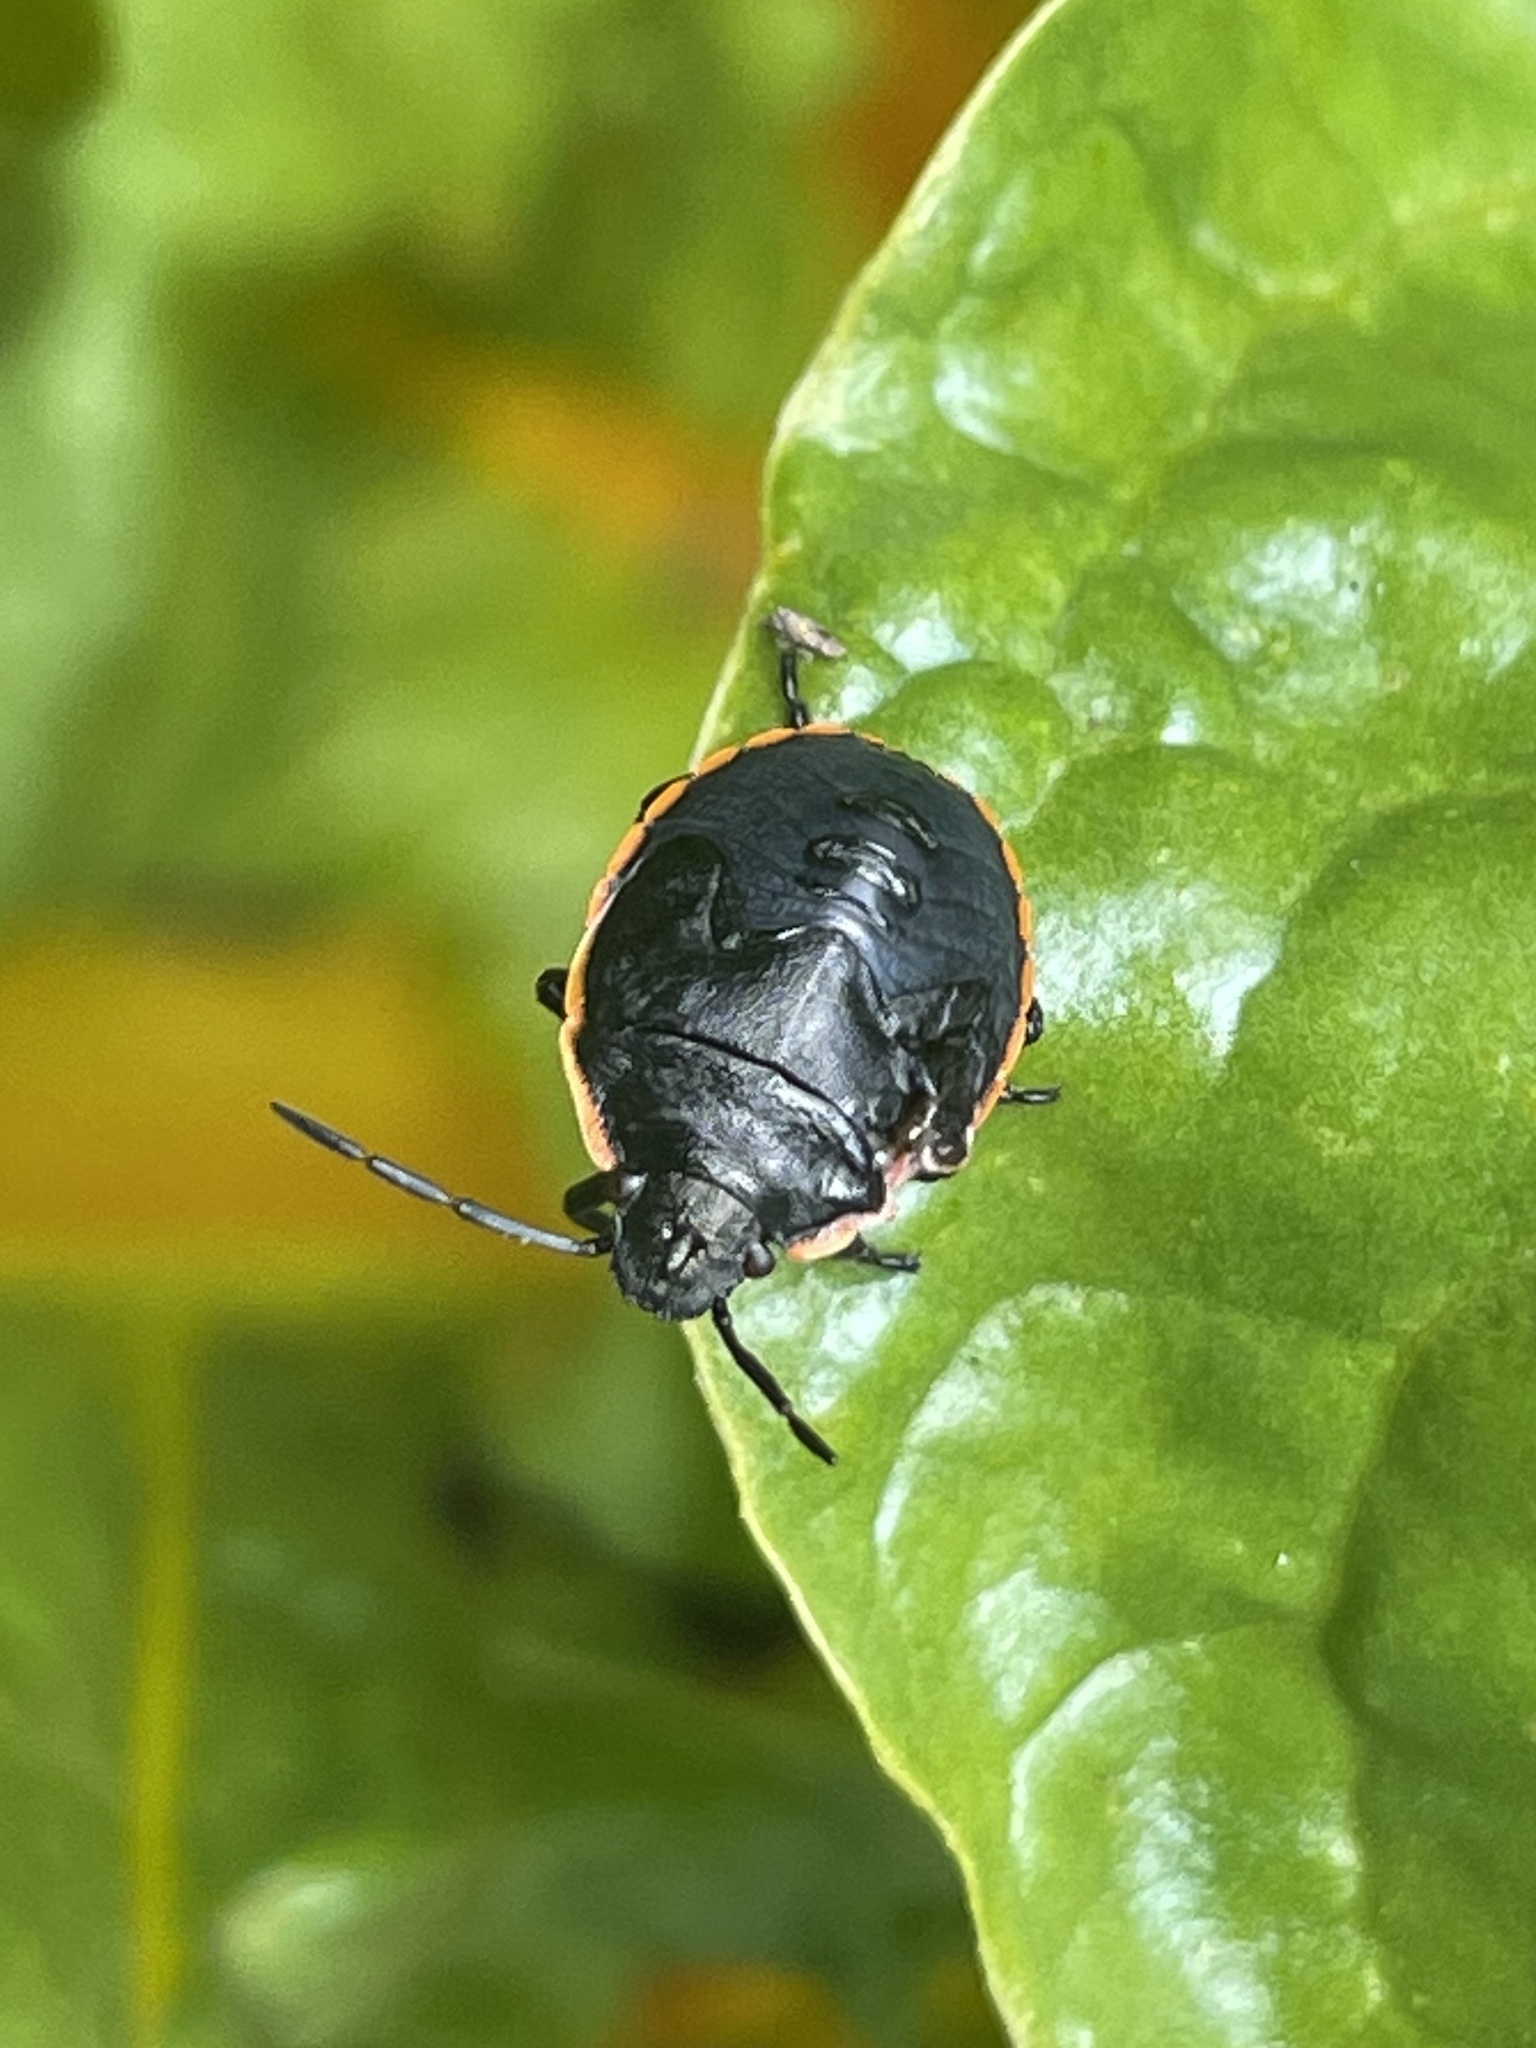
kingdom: Animalia
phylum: Arthropoda
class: Insecta
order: Hemiptera
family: Pentatomidae
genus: Chlorochroa
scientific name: Chlorochroa ligata
